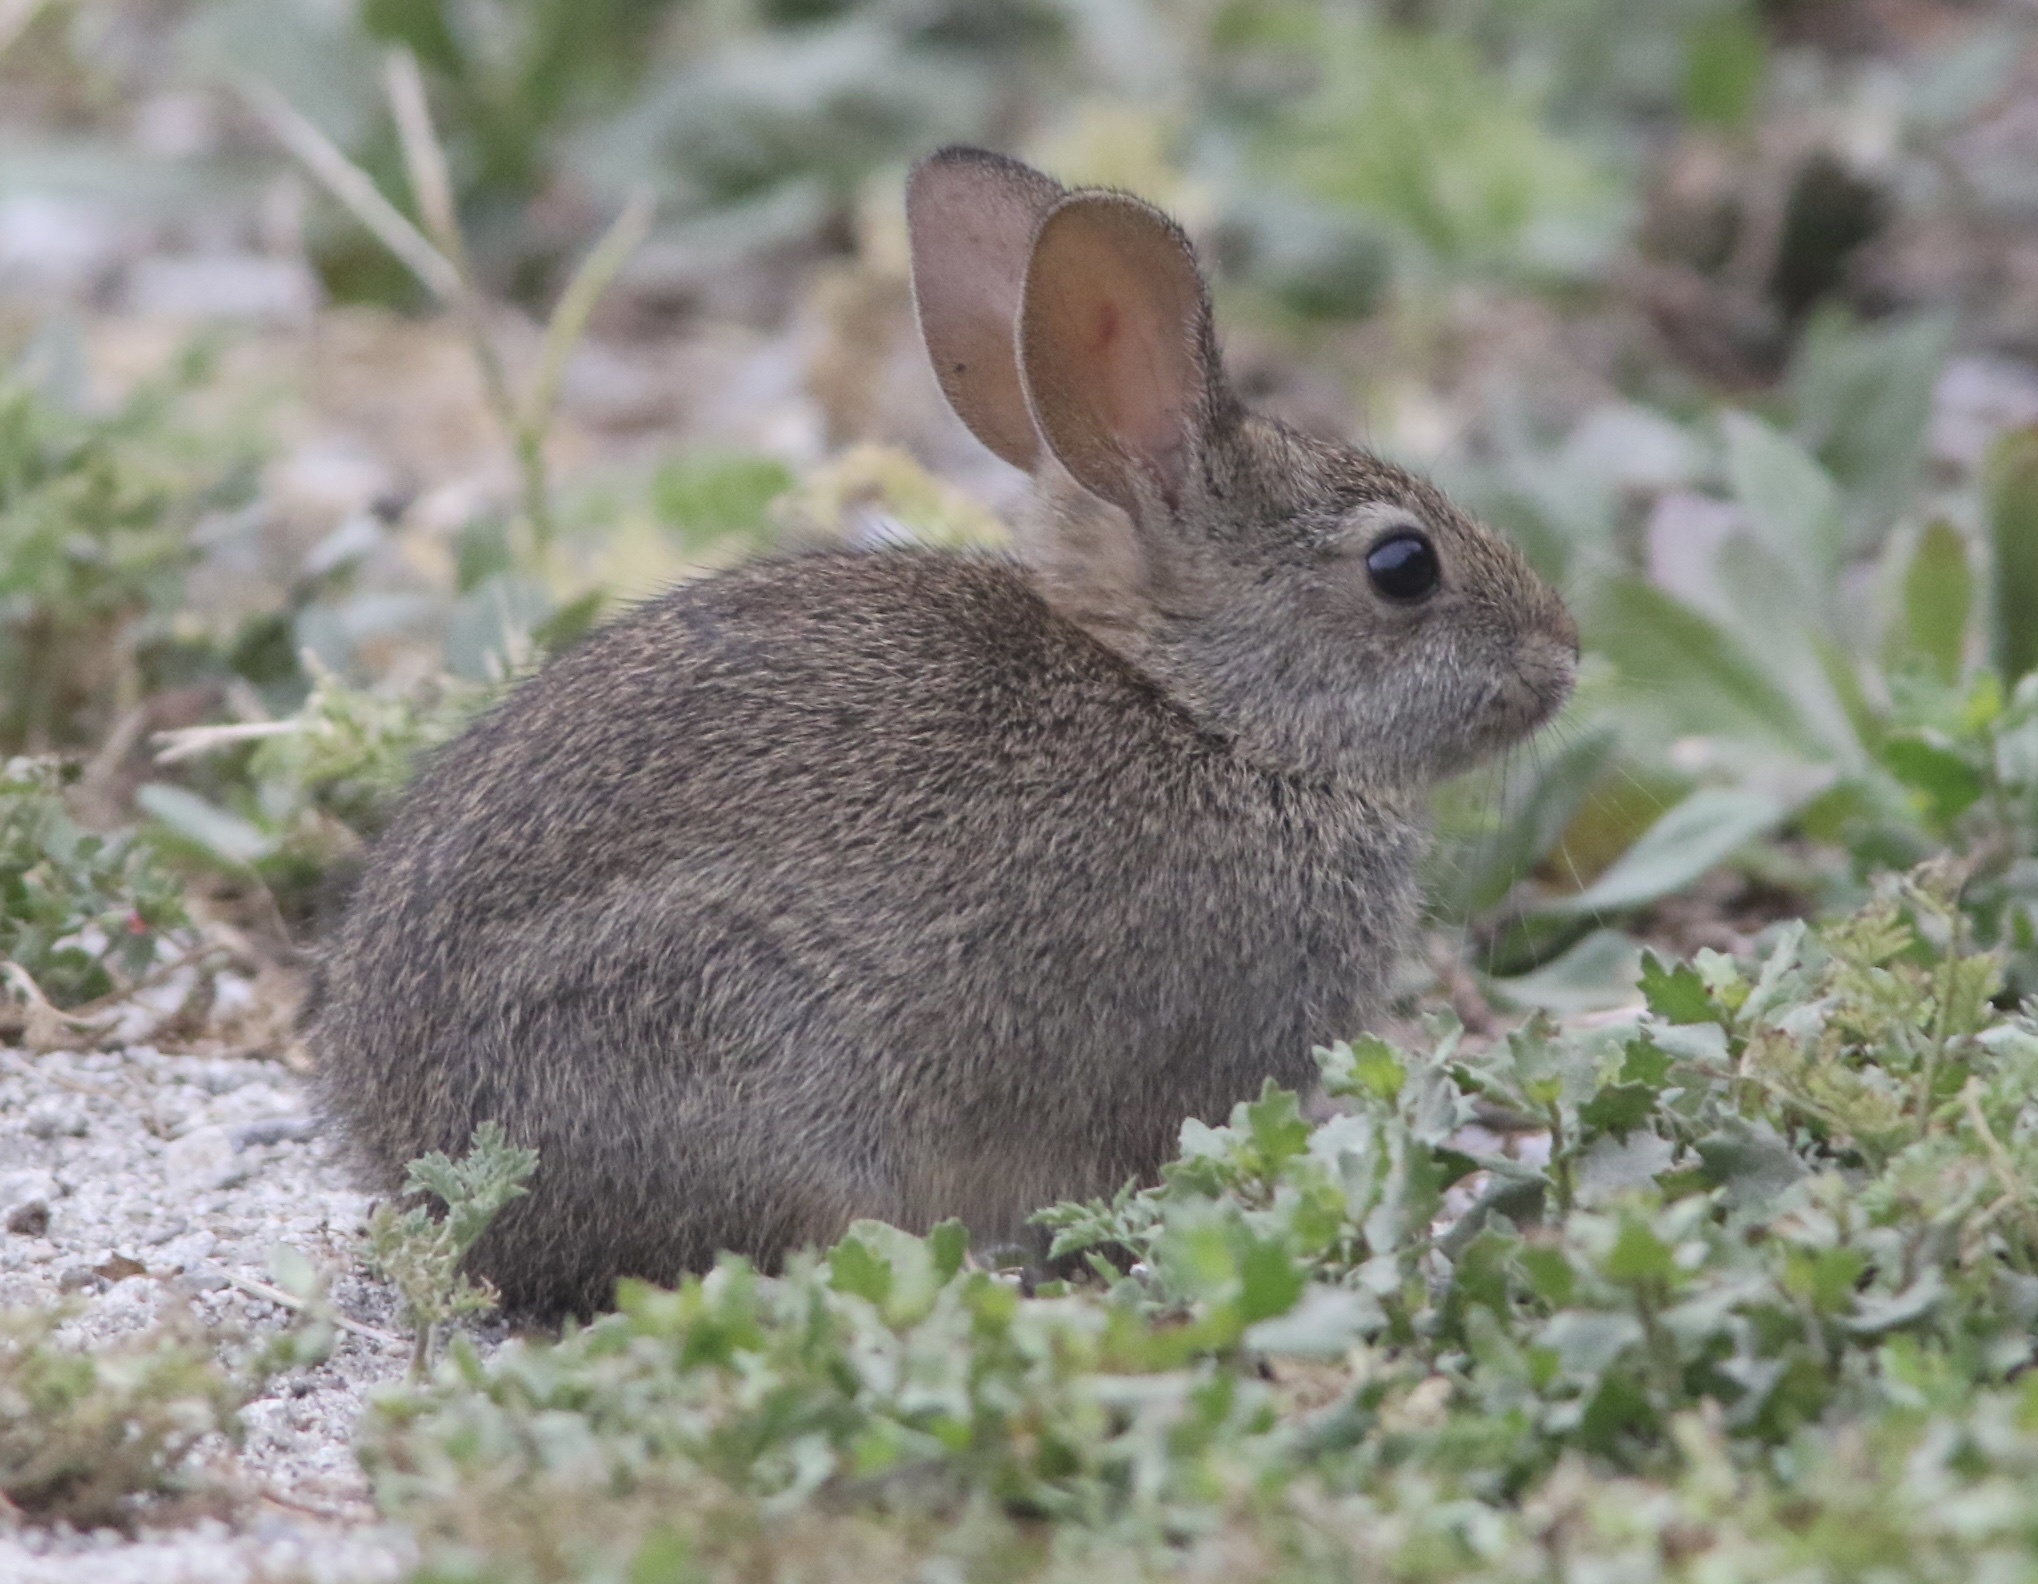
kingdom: Animalia
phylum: Chordata
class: Mammalia
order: Lagomorpha
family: Leporidae
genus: Sylvilagus
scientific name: Sylvilagus bachmani
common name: Brush rabbit
